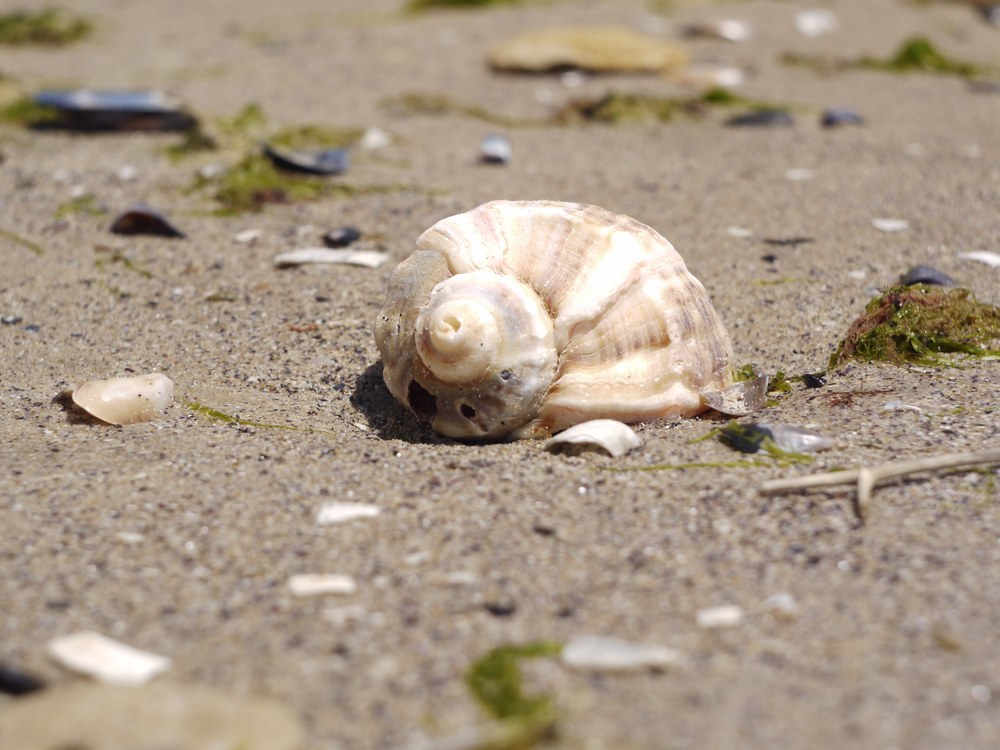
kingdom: Animalia
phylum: Mollusca
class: Gastropoda
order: Neogastropoda
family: Muricidae
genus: Rapana
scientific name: Rapana venosa
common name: Veined rapa whelk
